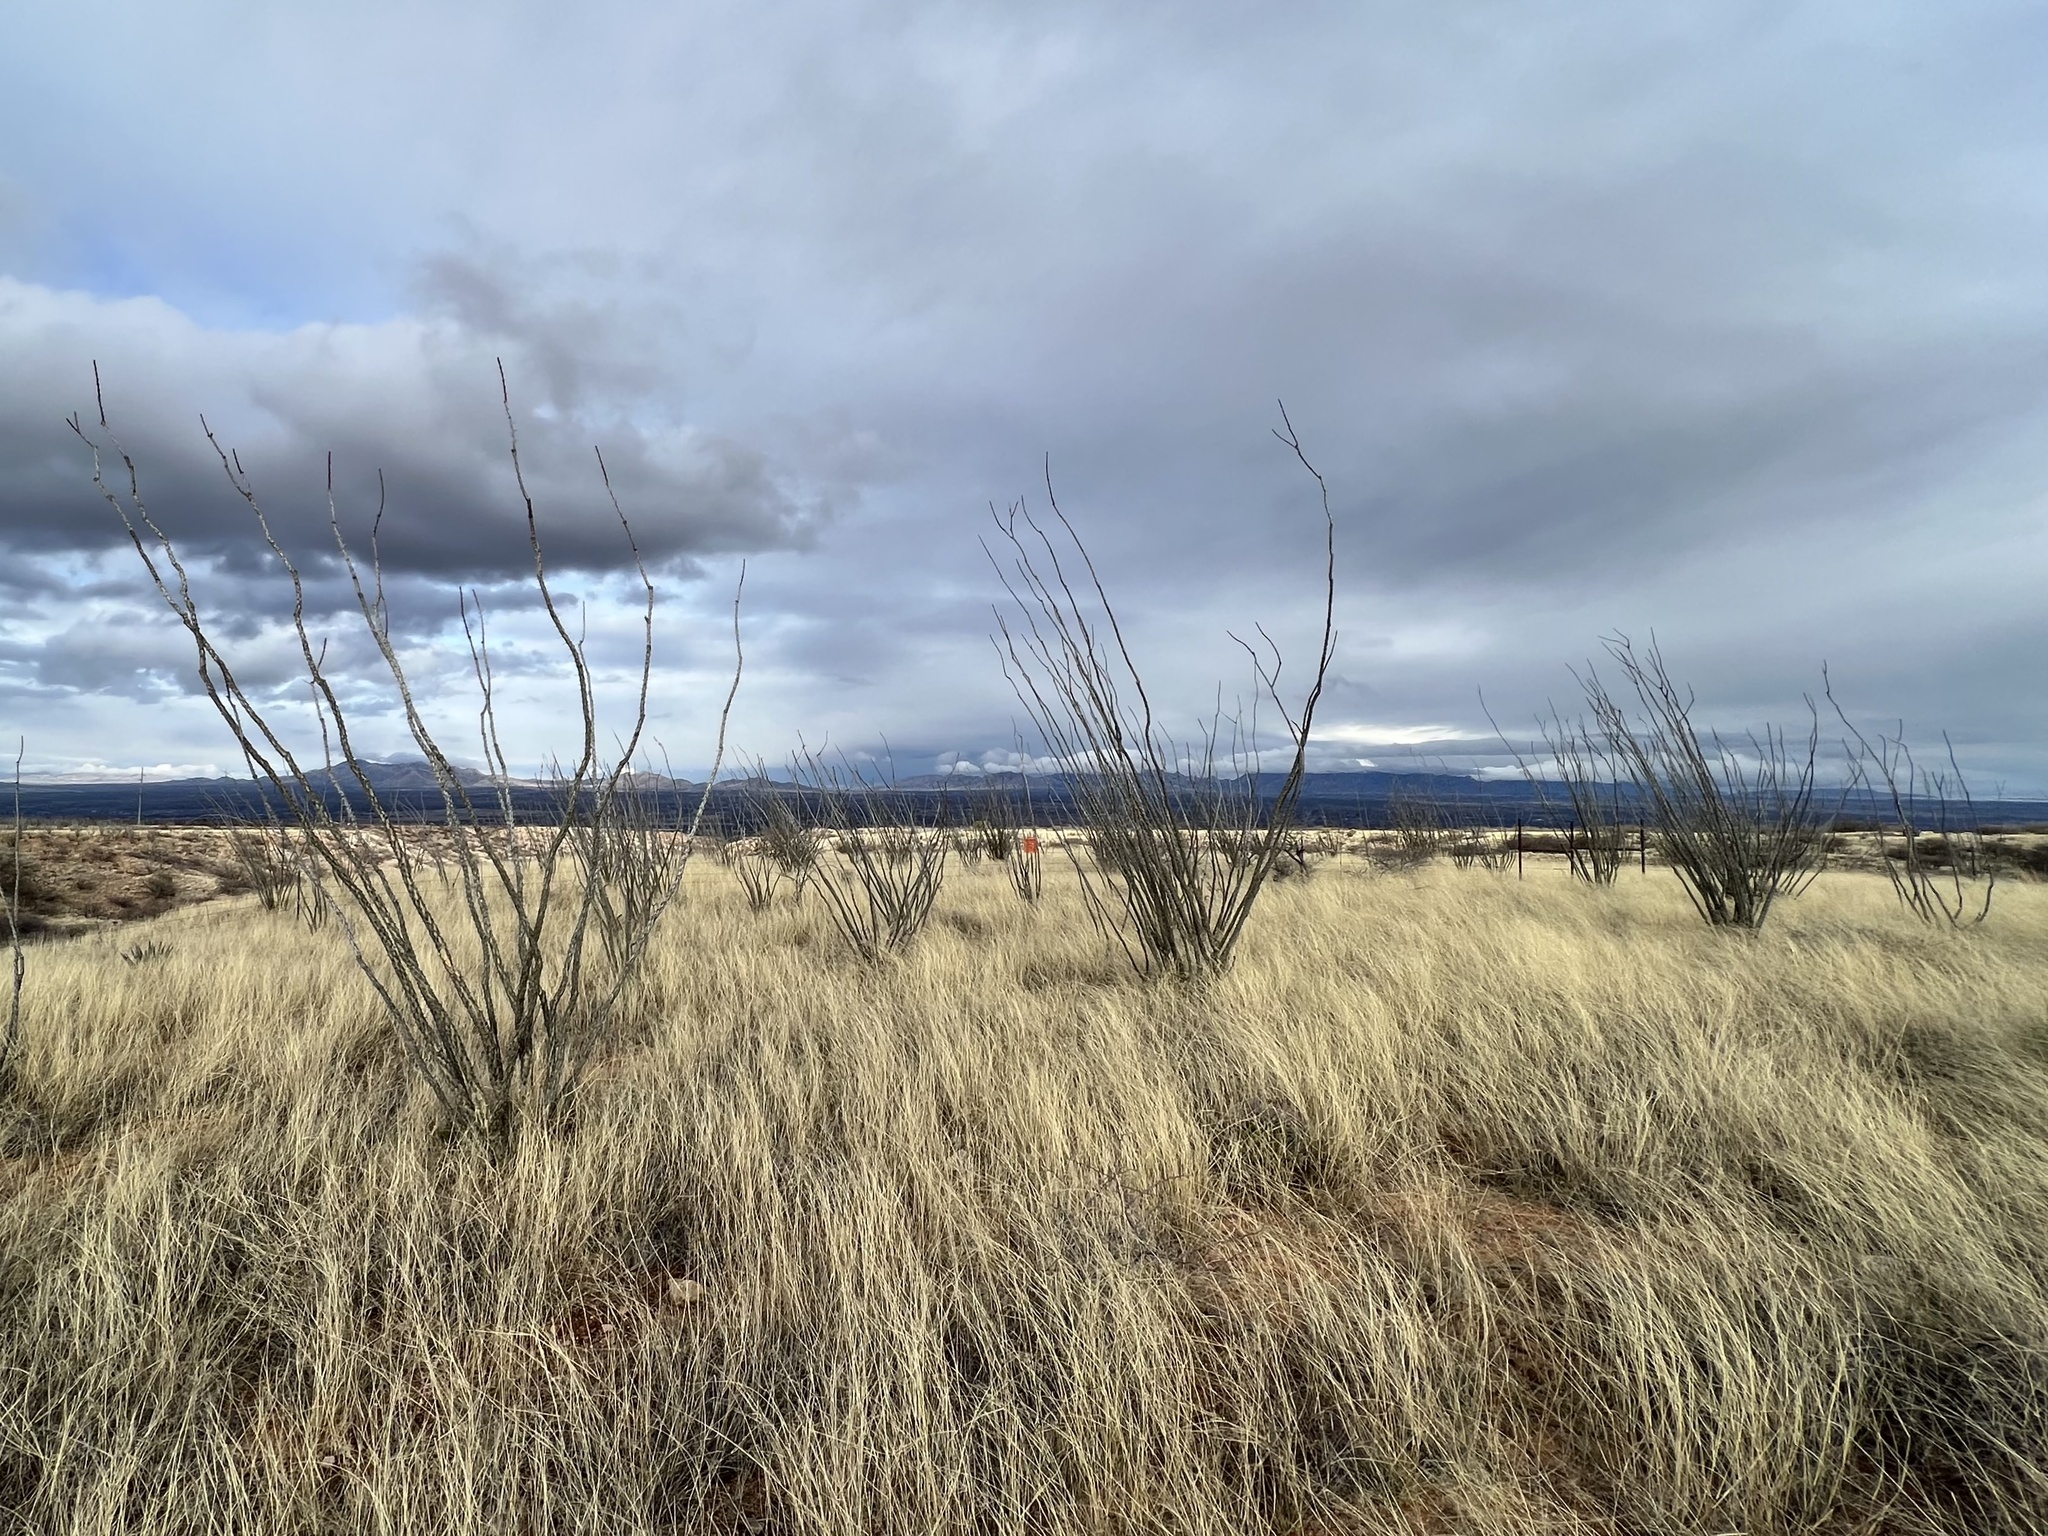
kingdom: Plantae
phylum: Tracheophyta
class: Magnoliopsida
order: Ericales
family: Fouquieriaceae
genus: Fouquieria
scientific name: Fouquieria splendens
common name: Vine-cactus
